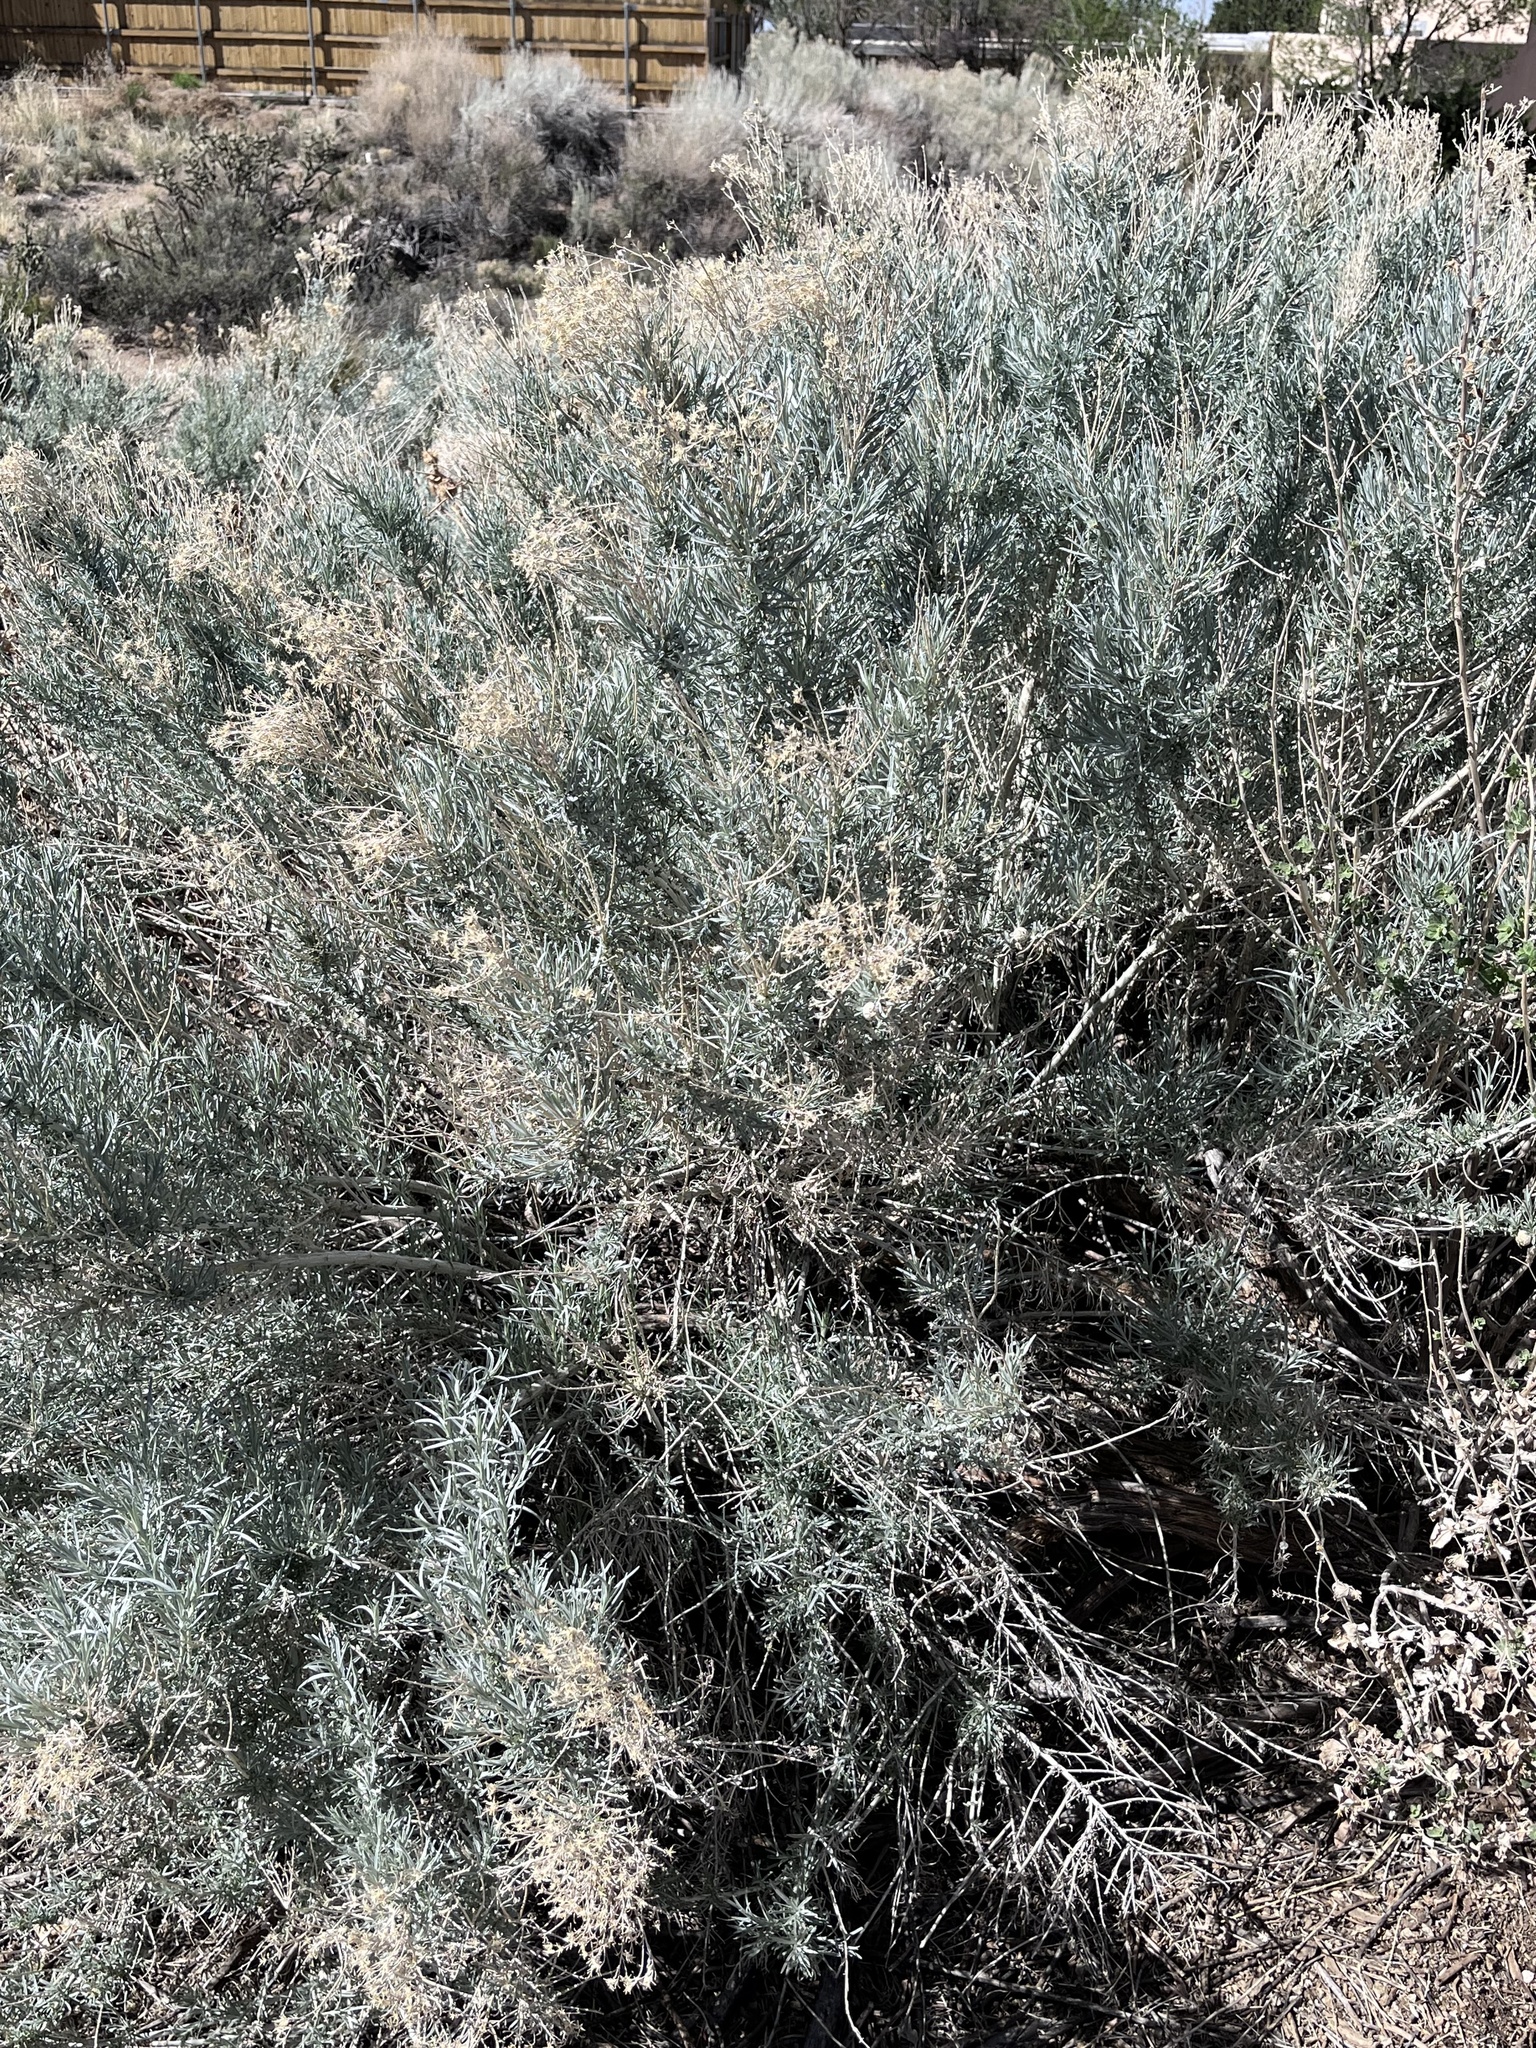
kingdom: Plantae
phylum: Tracheophyta
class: Magnoliopsida
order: Asterales
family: Asteraceae
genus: Ericameria
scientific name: Ericameria nauseosa
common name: Rubber rabbitbrush
